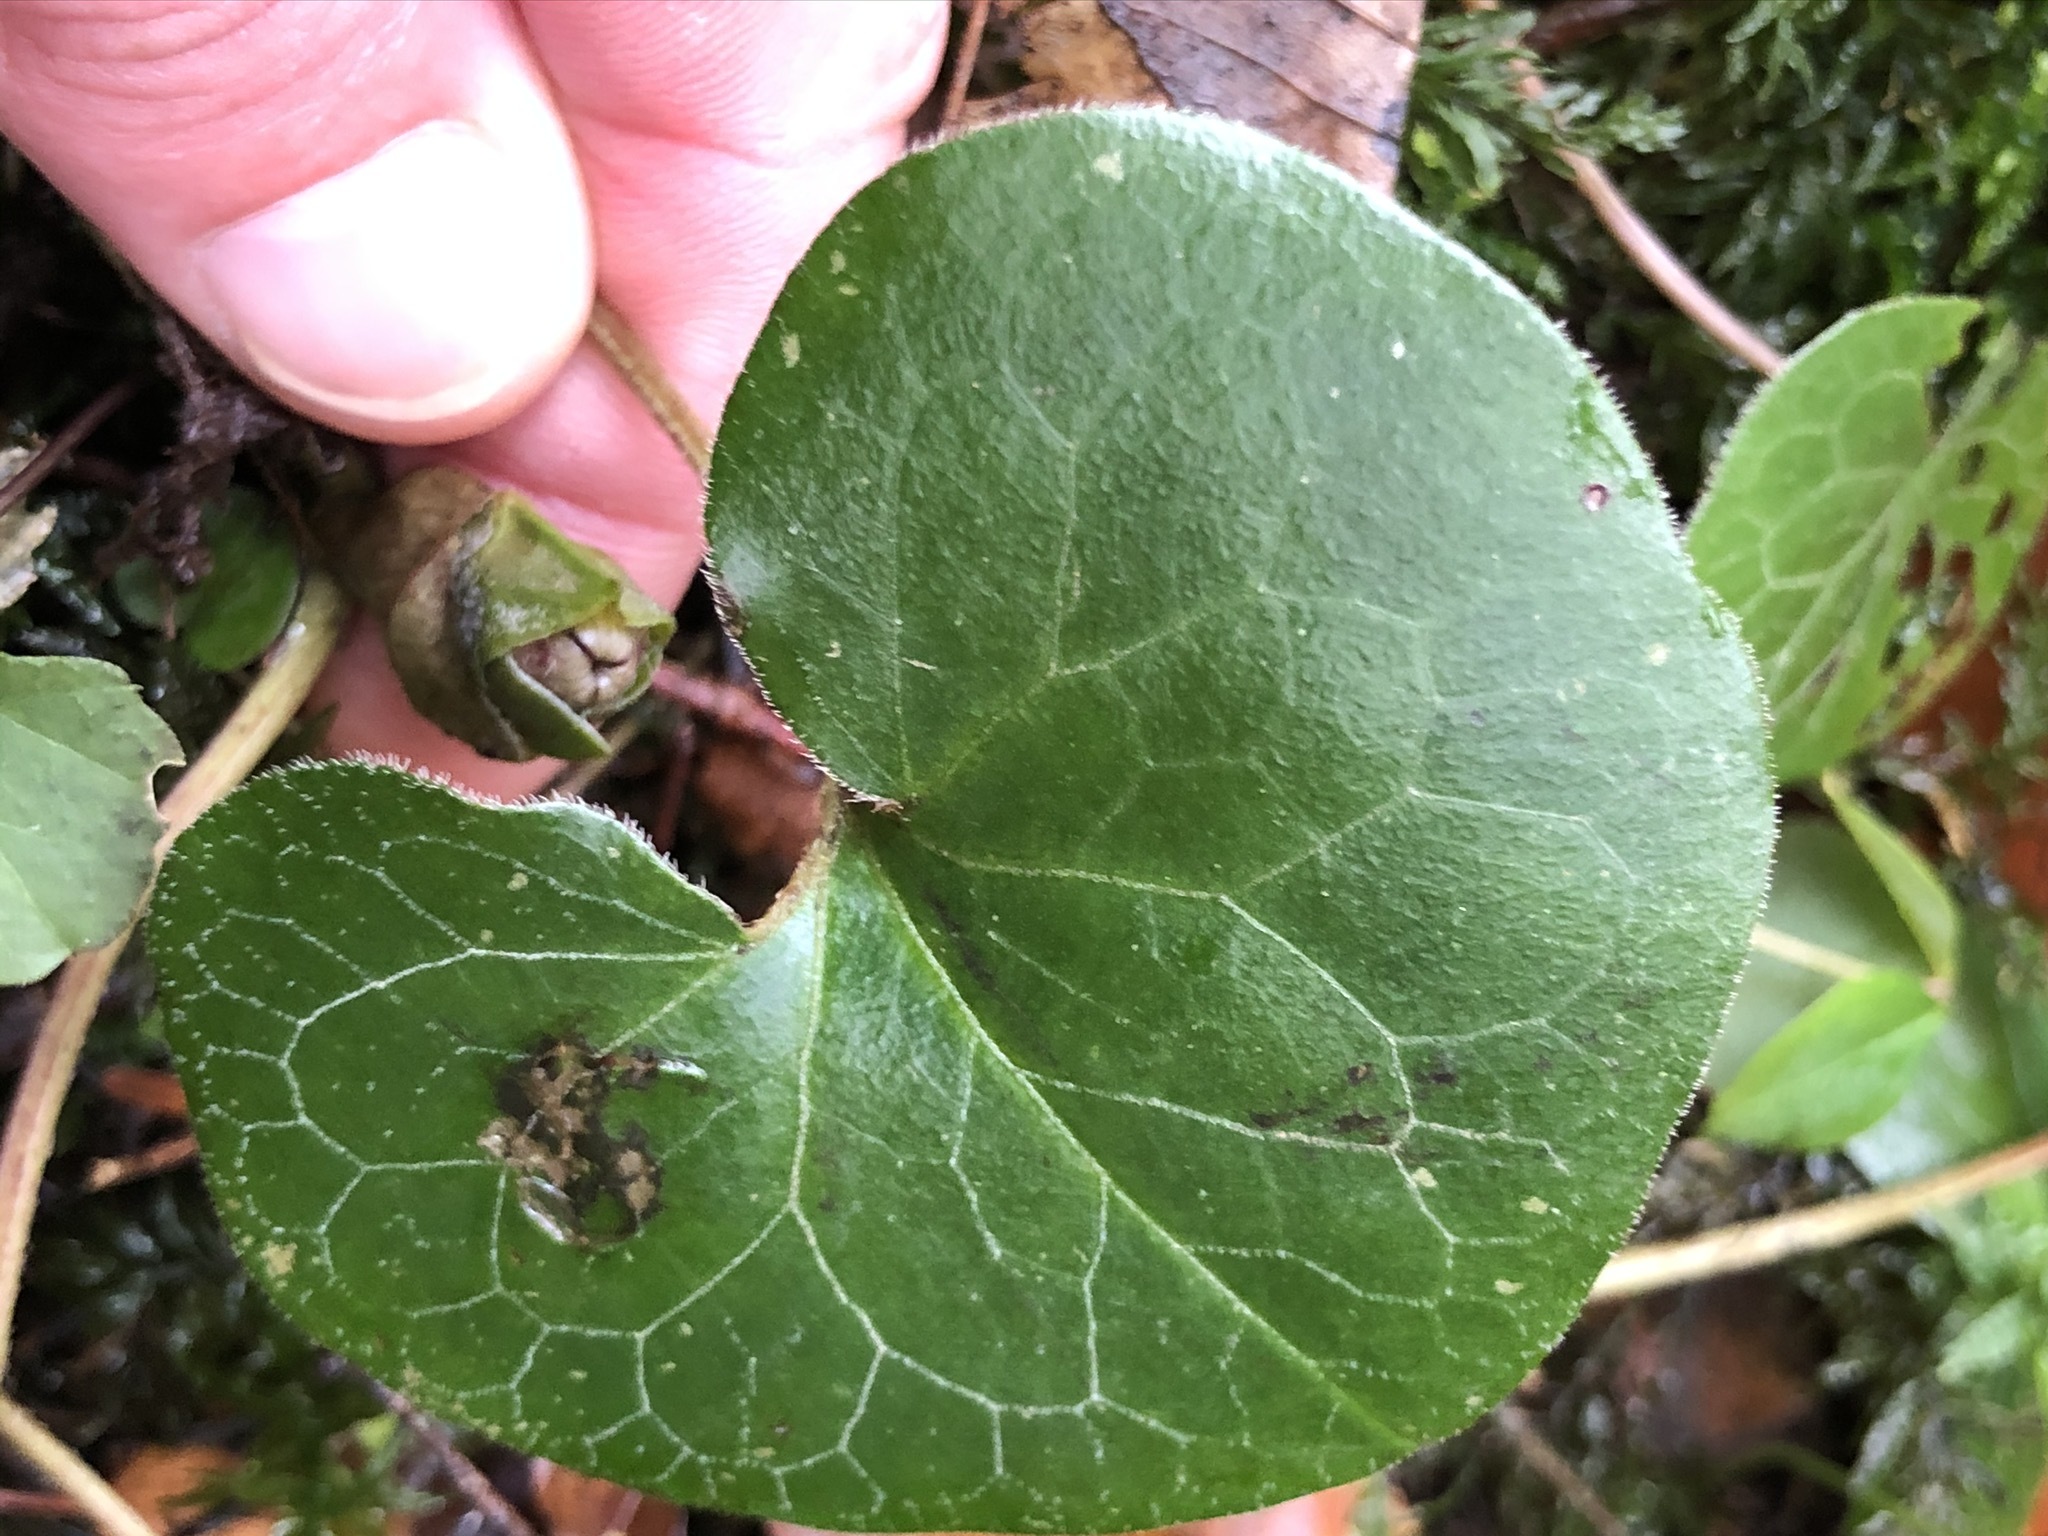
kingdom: Plantae
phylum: Tracheophyta
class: Magnoliopsida
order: Piperales
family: Aristolochiaceae
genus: Asarum
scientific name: Asarum europaeum
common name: Asarabacca
